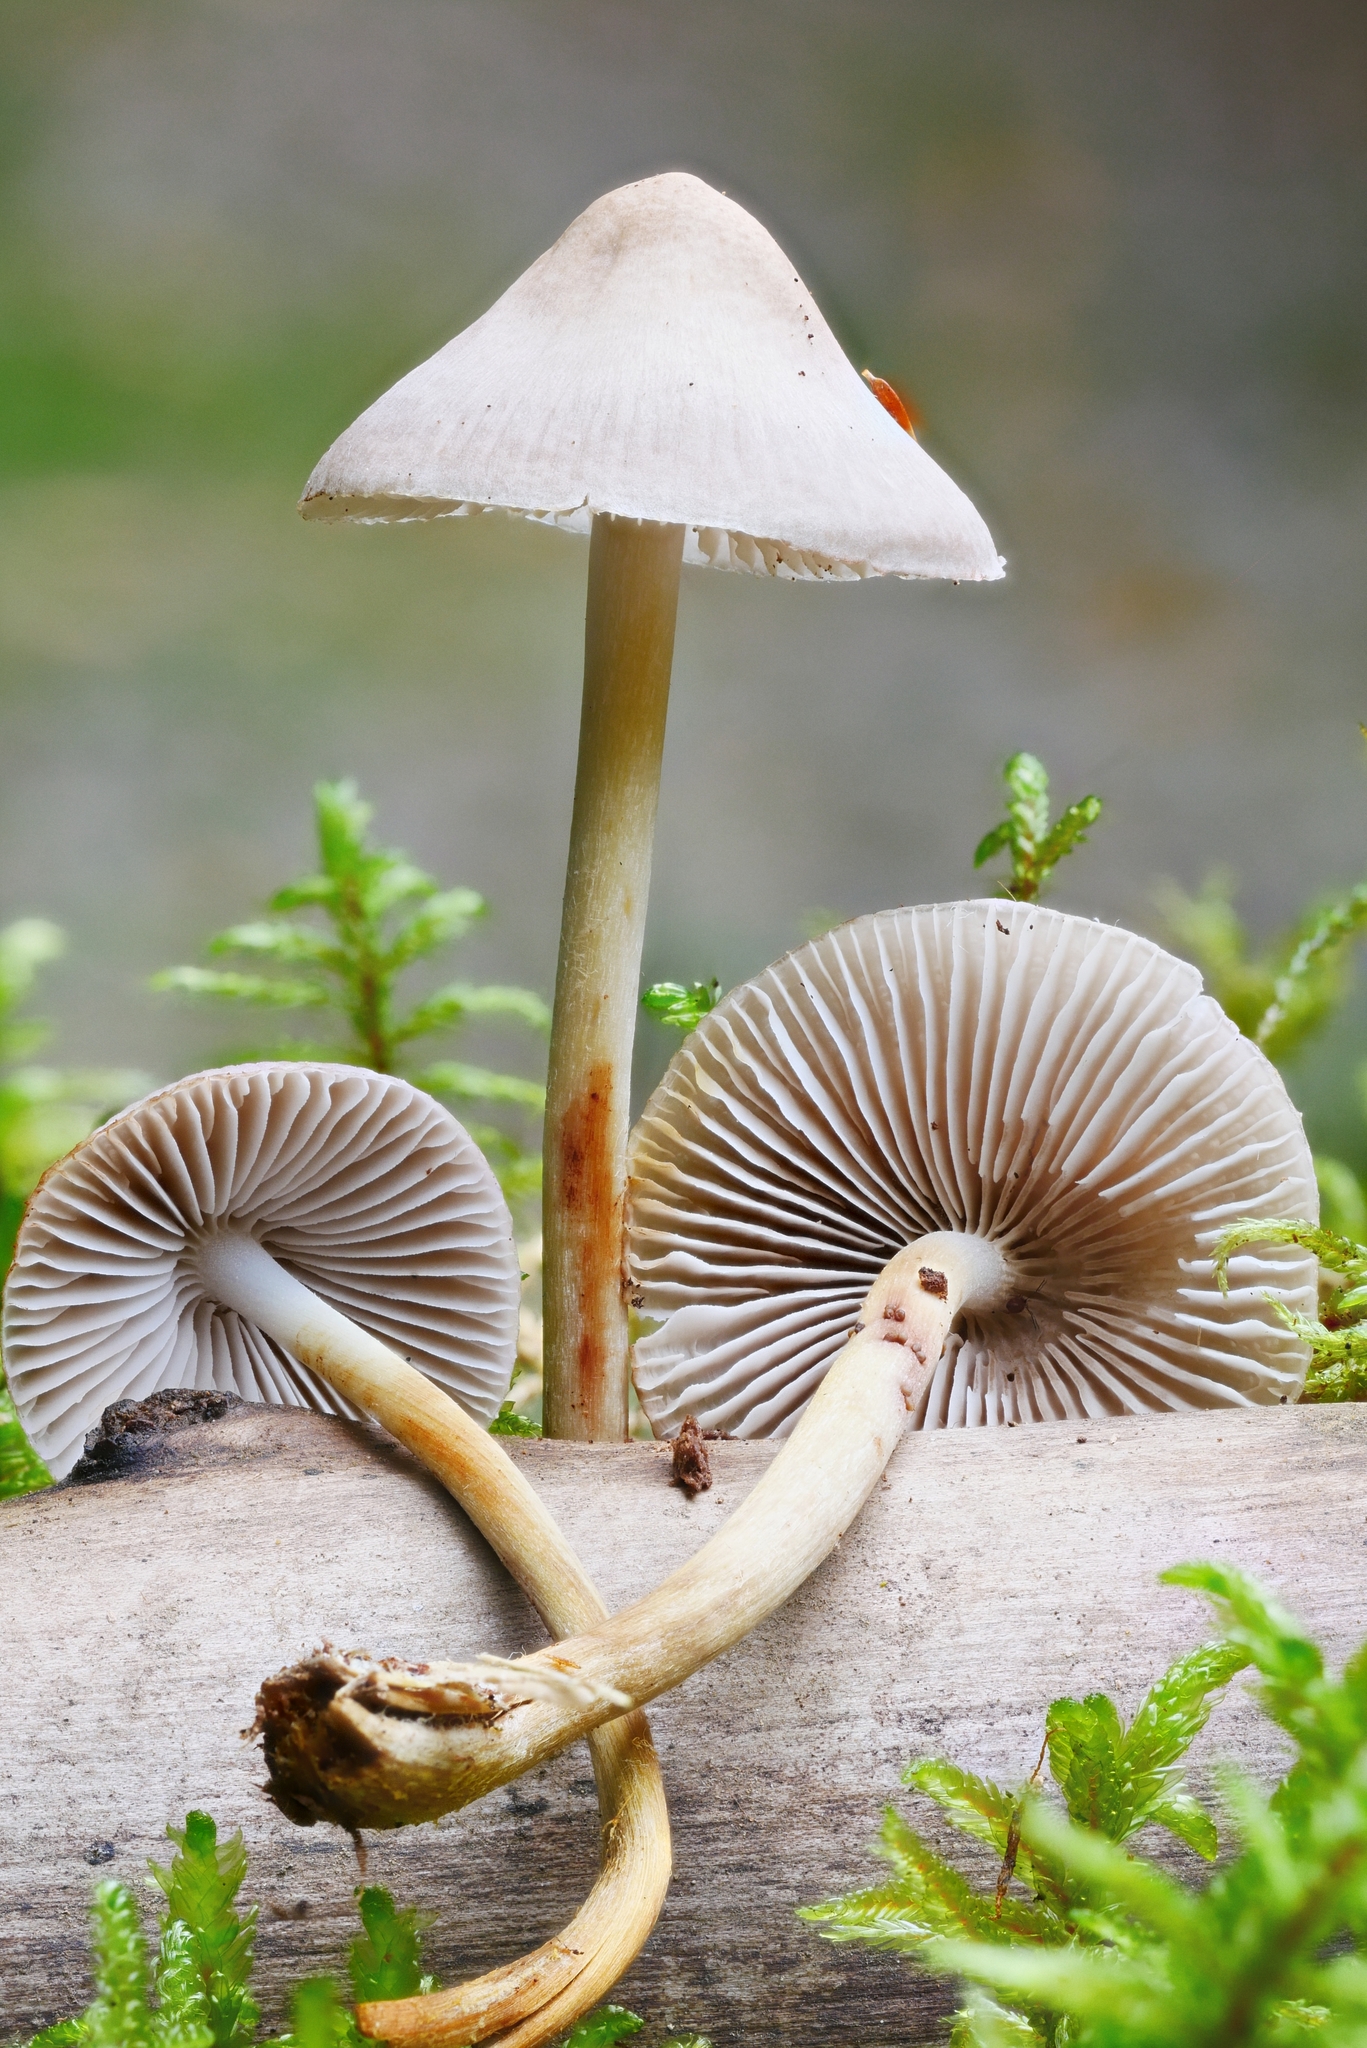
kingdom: Fungi
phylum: Basidiomycota
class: Agaricomycetes
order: Agaricales
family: Mycenaceae
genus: Mycena
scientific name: Mycena inclinata
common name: Clustered bonnet
